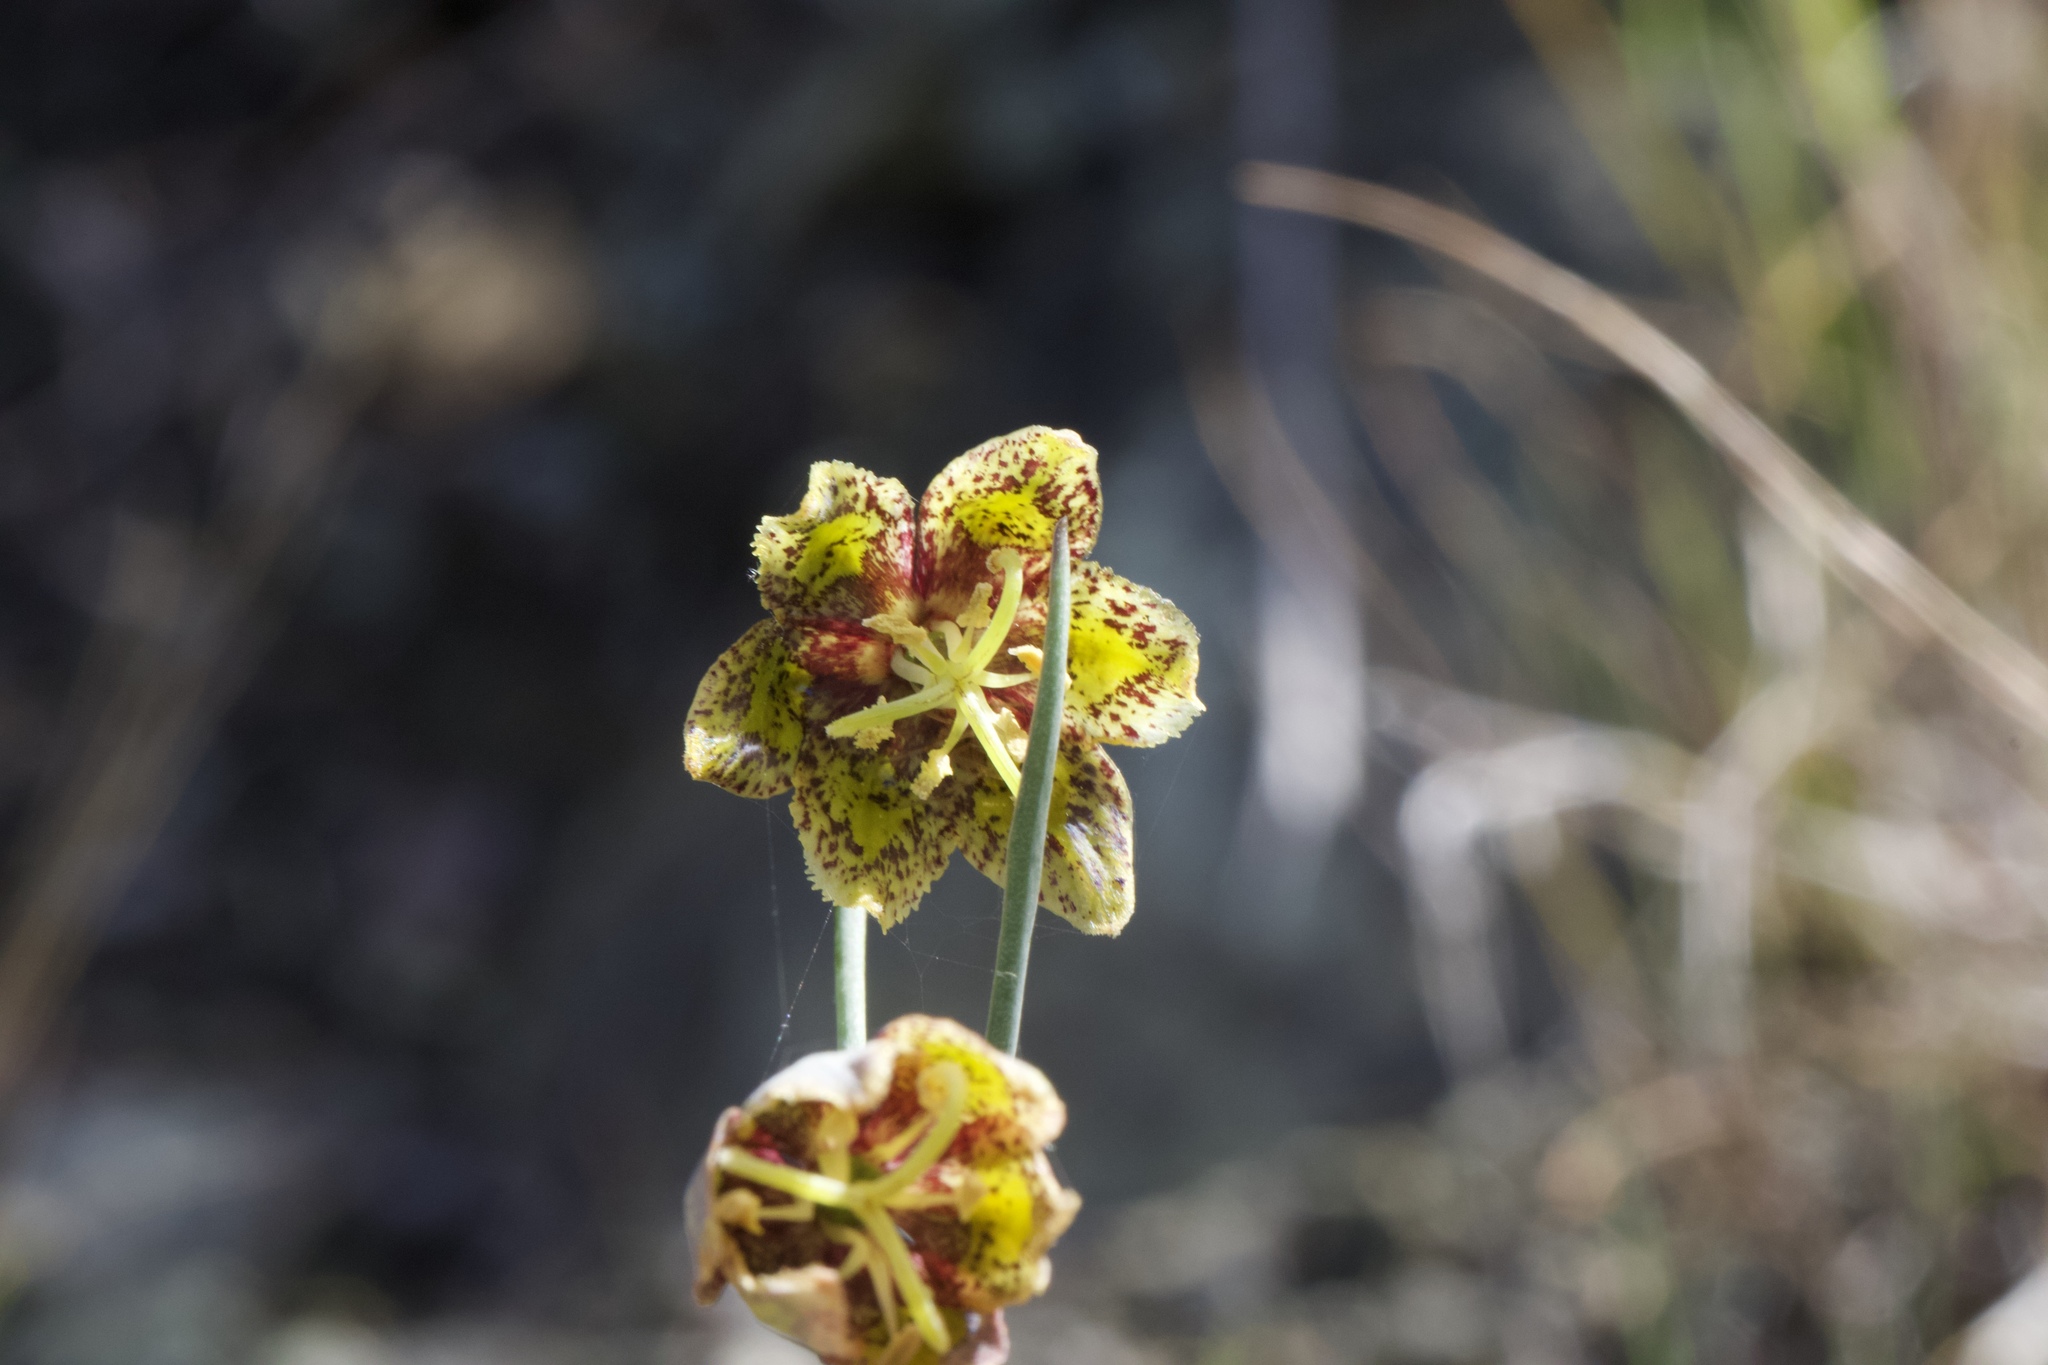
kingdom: Plantae
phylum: Tracheophyta
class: Liliopsida
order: Liliales
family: Liliaceae
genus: Fritillaria
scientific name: Fritillaria ojaiensis
